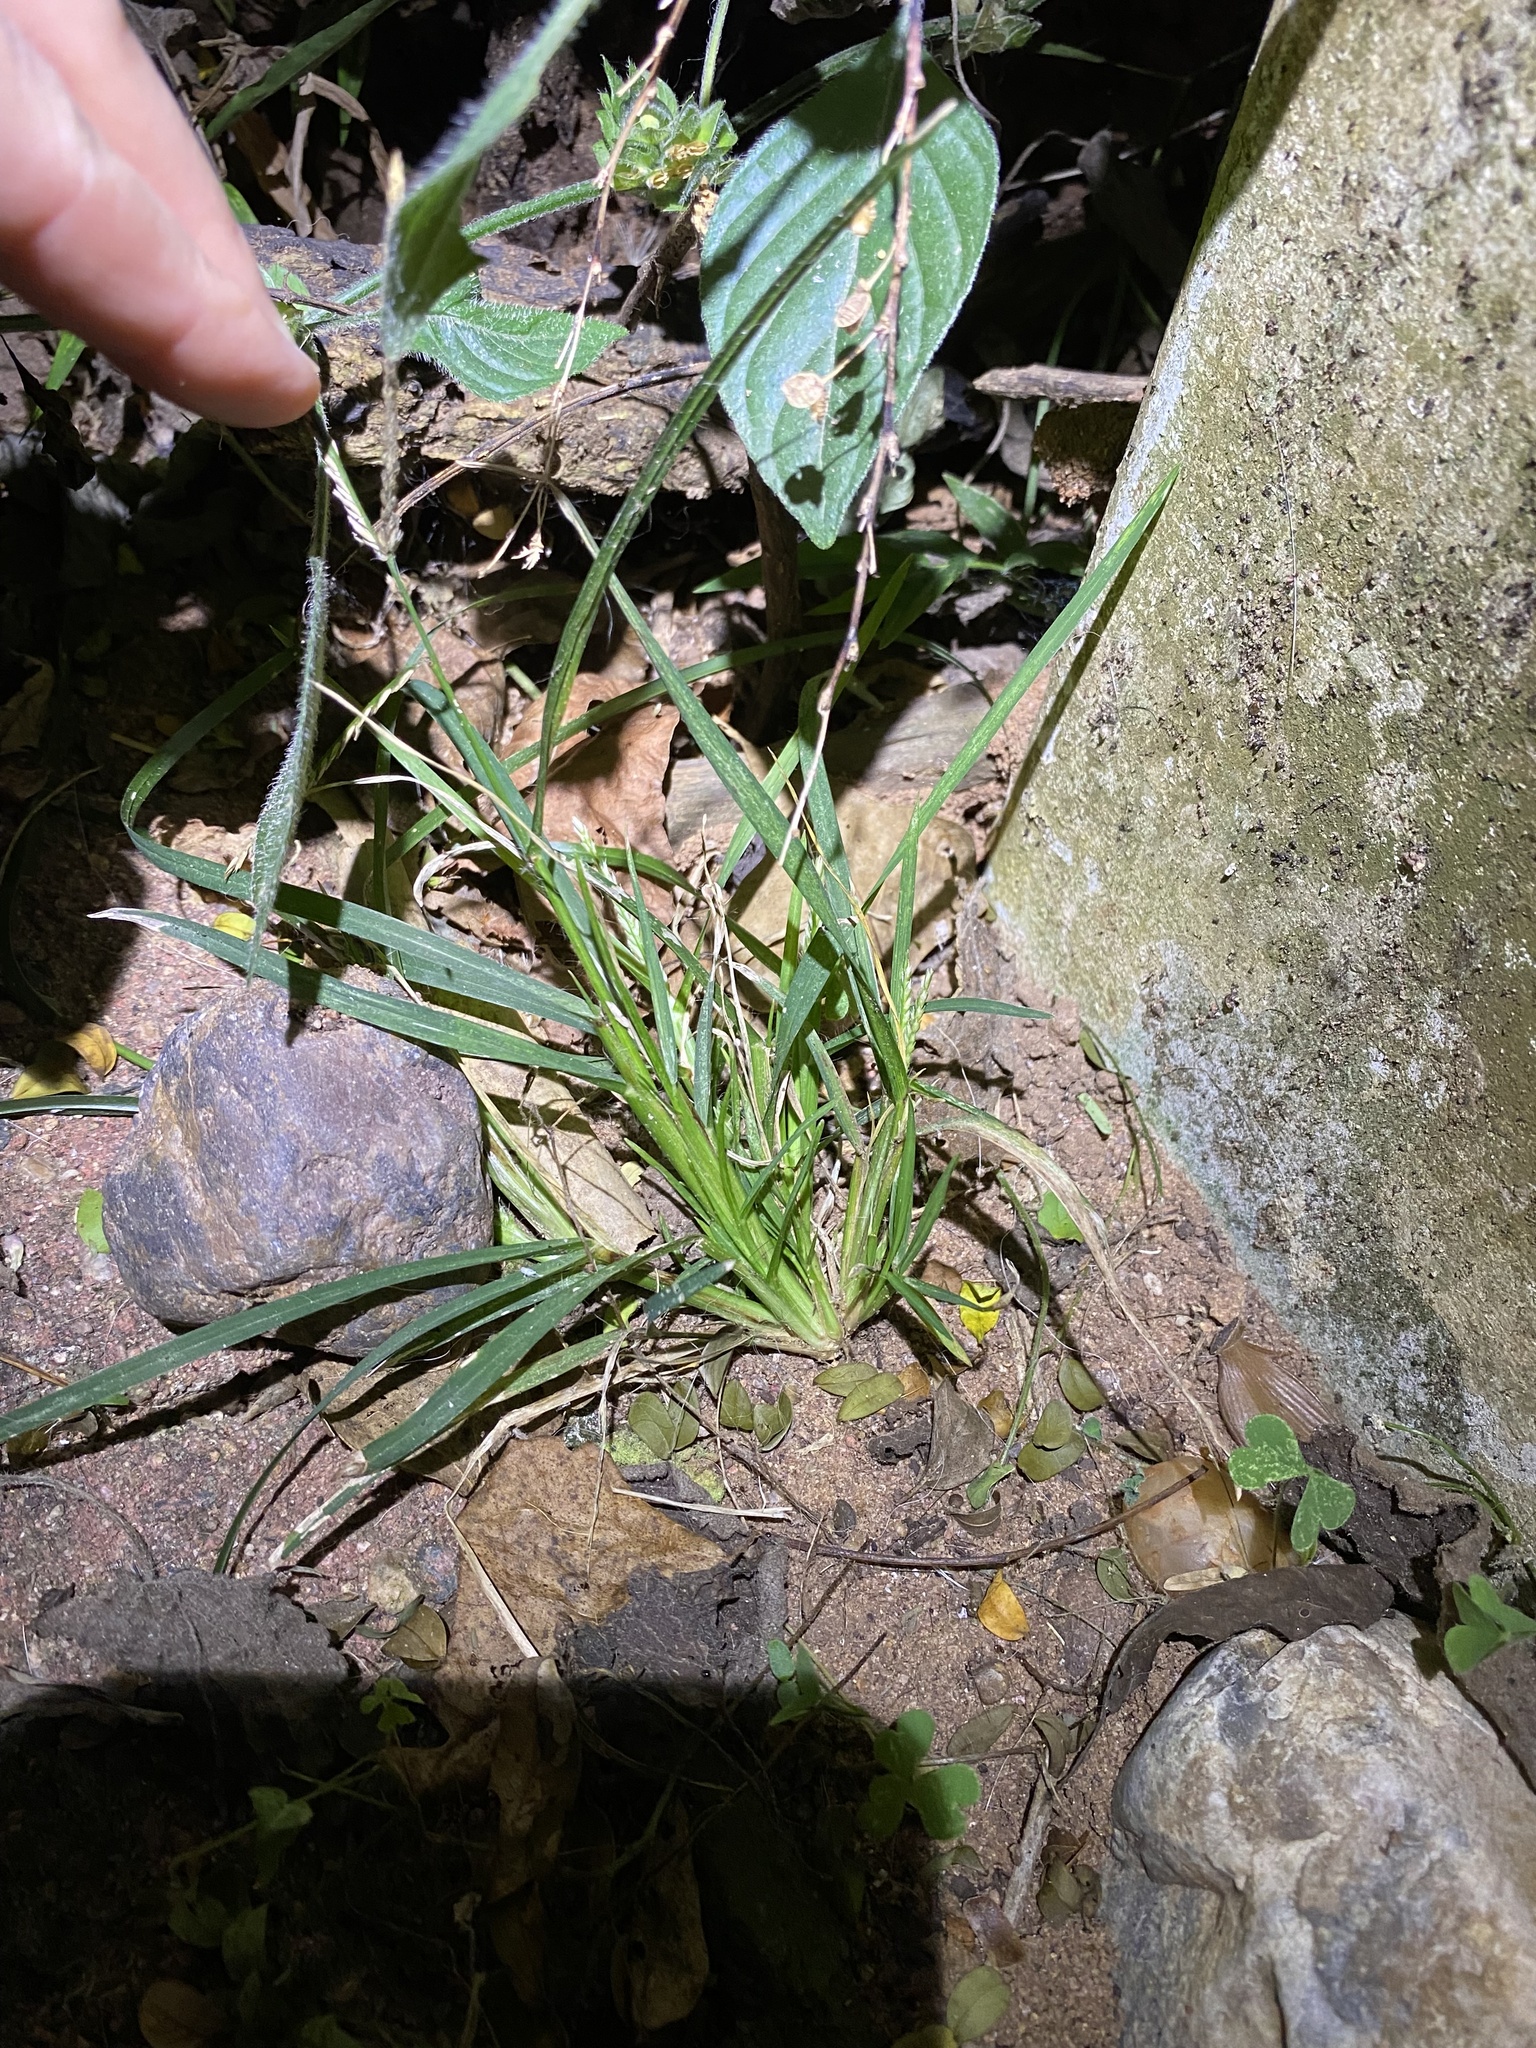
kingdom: Plantae
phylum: Tracheophyta
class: Liliopsida
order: Poales
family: Poaceae
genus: Eleusine
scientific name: Eleusine indica
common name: Yard-grass
